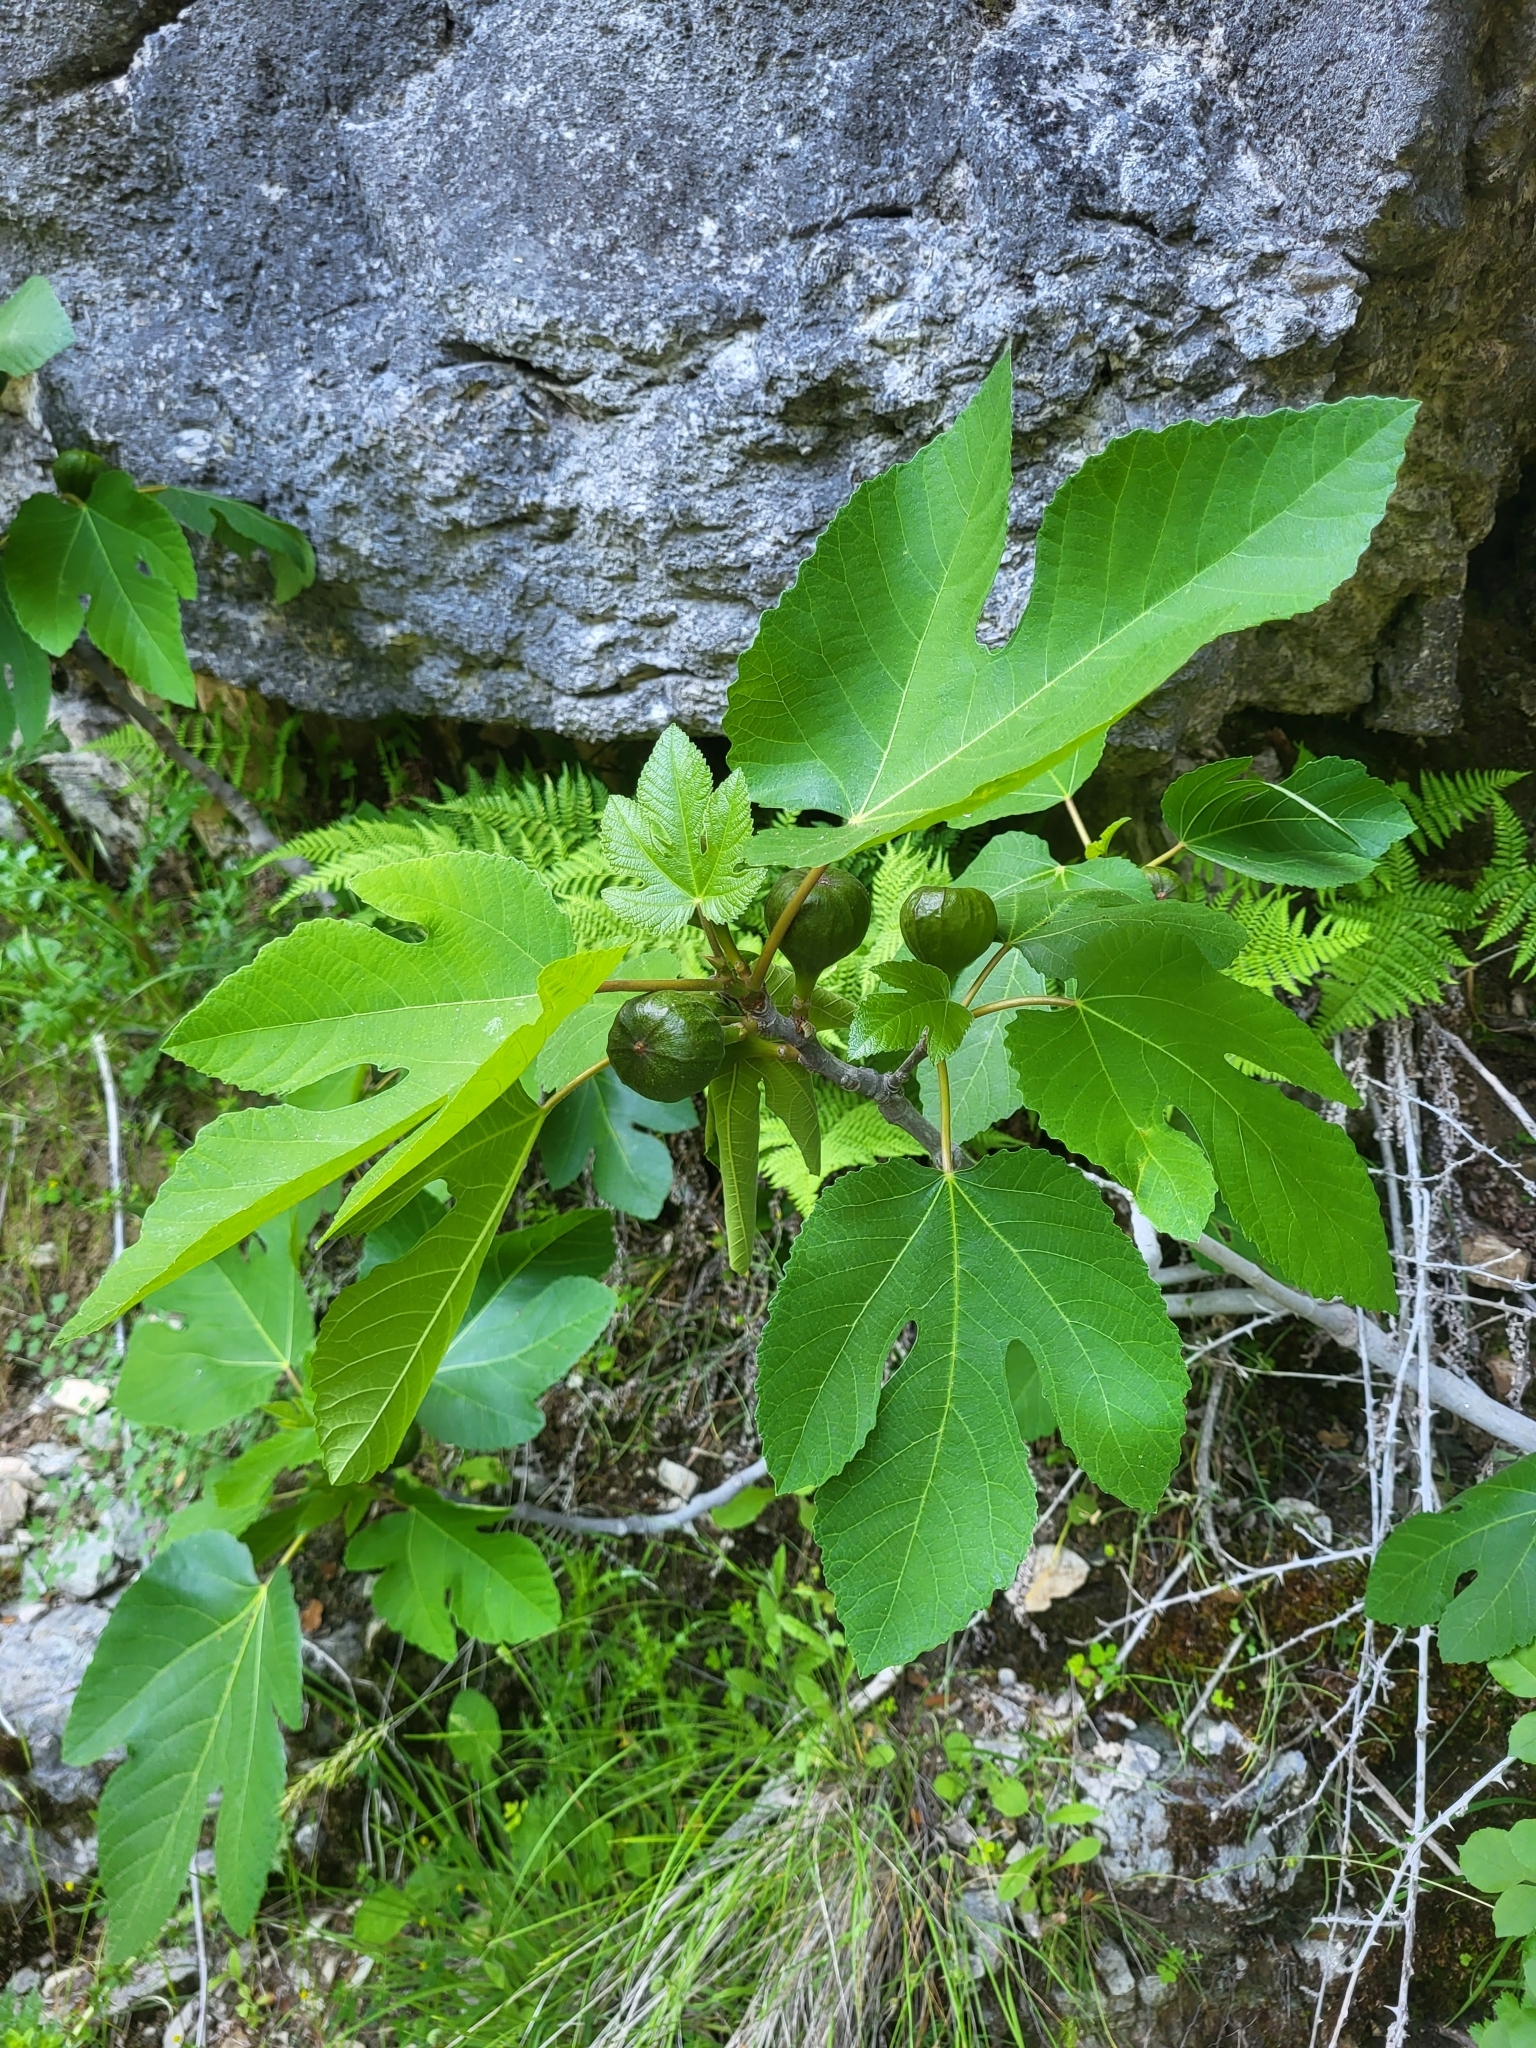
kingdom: Plantae
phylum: Tracheophyta
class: Magnoliopsida
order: Rosales
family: Moraceae
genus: Ficus
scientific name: Ficus carica
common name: Fig
